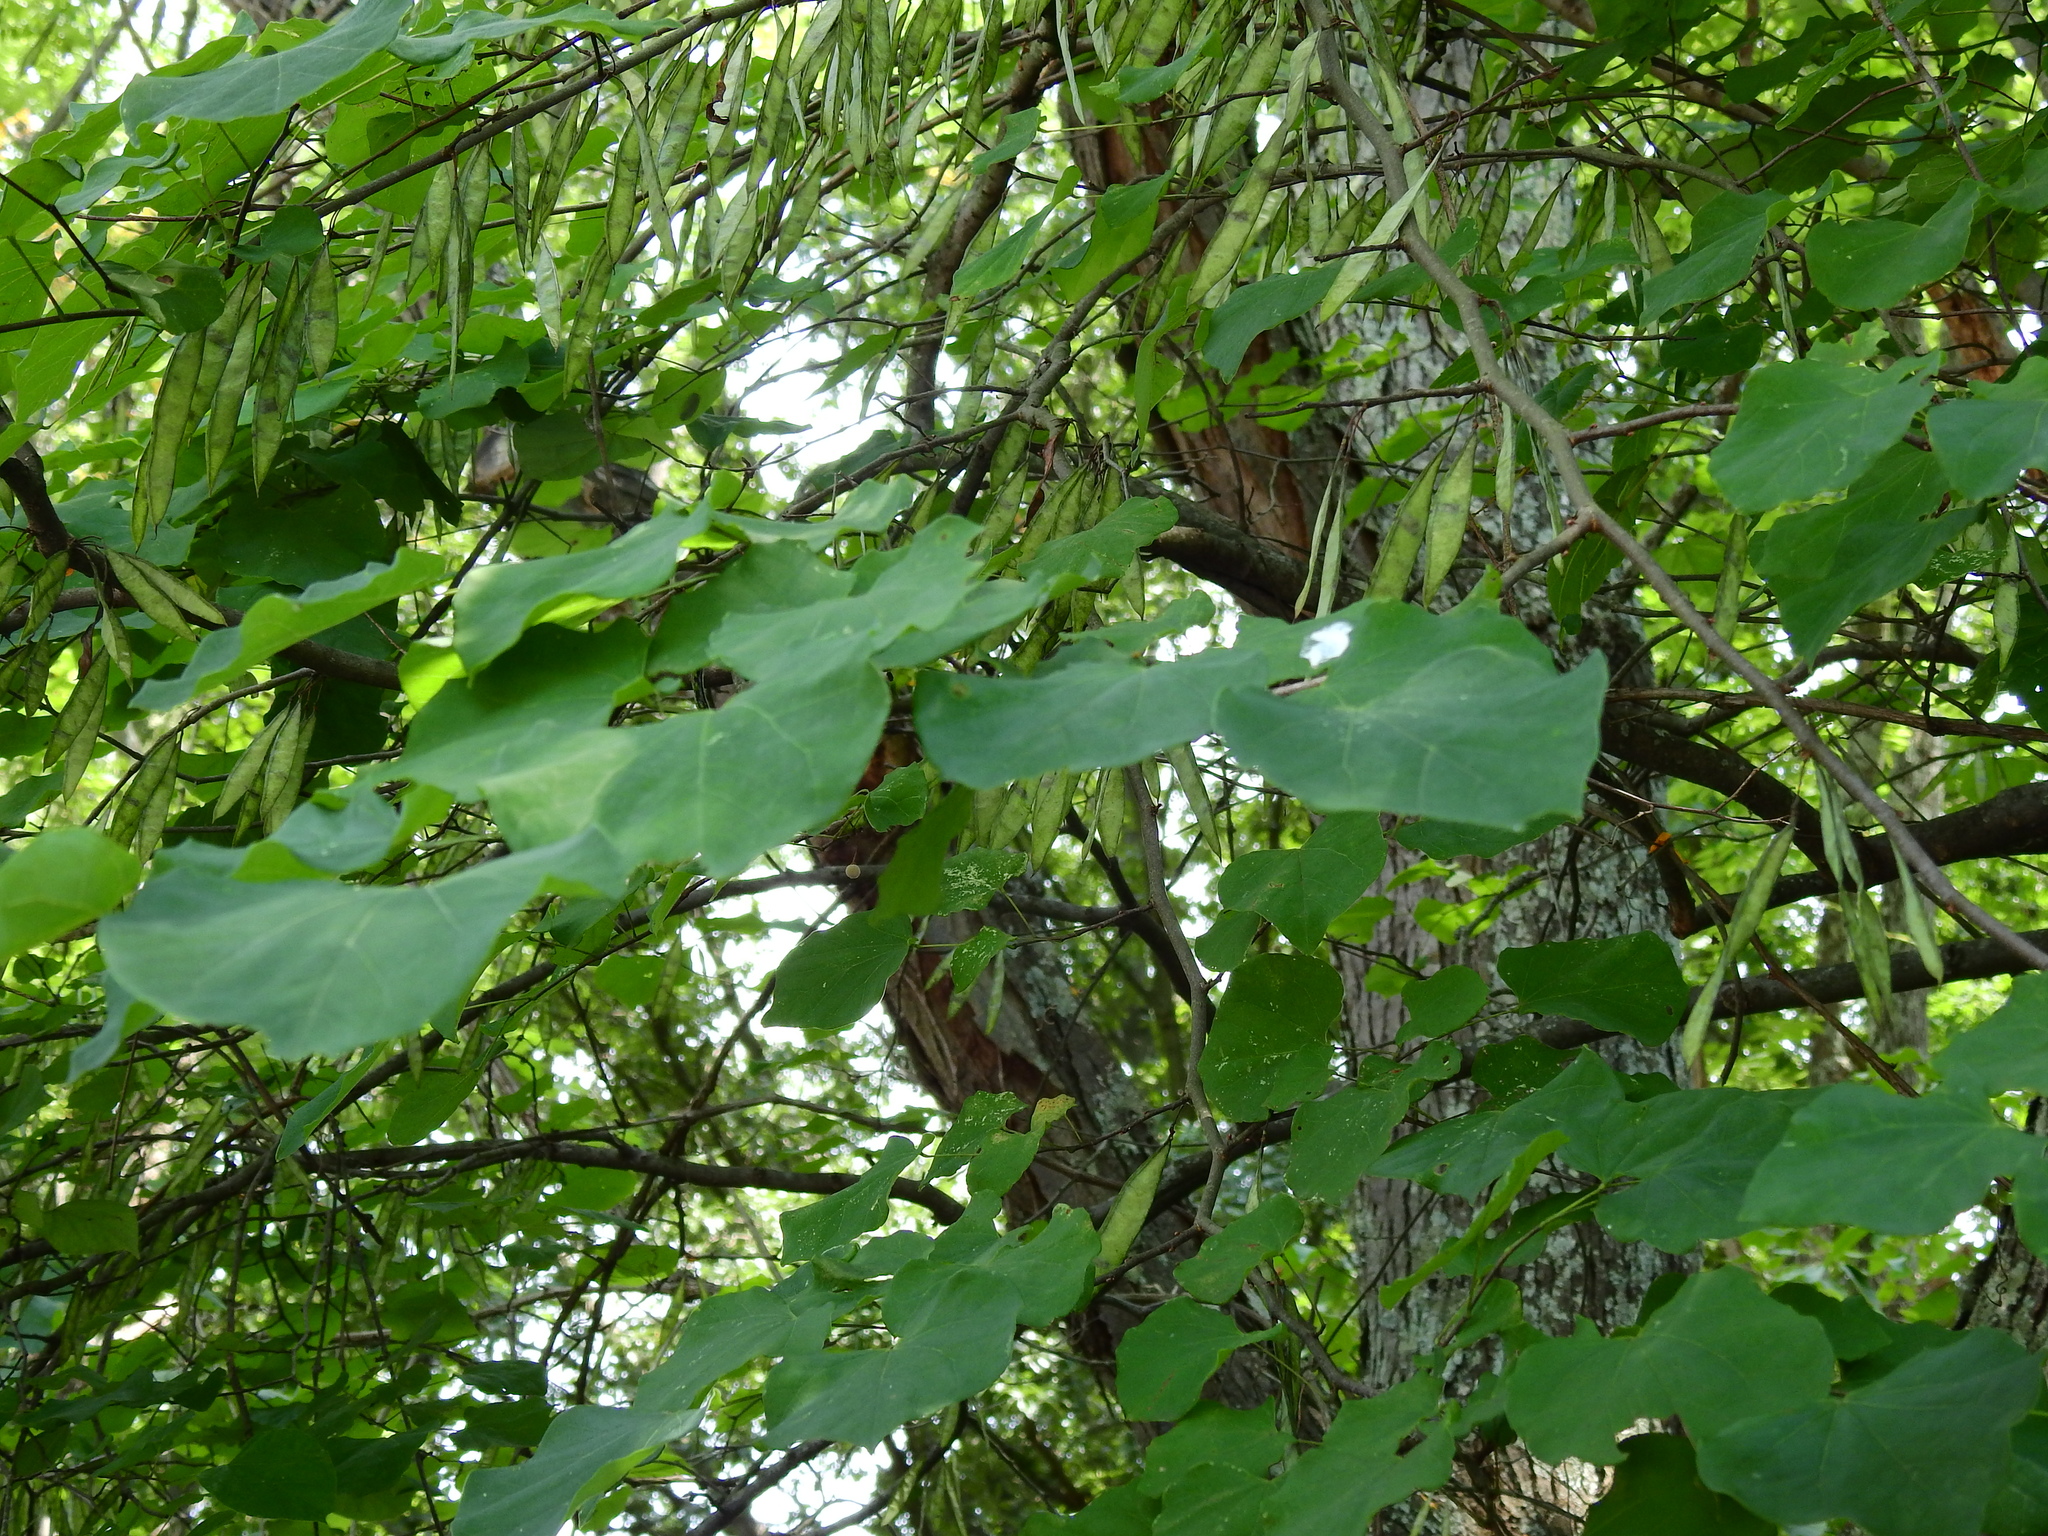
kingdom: Plantae
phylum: Tracheophyta
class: Magnoliopsida
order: Fabales
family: Fabaceae
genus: Cercis
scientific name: Cercis canadensis
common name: Eastern redbud
